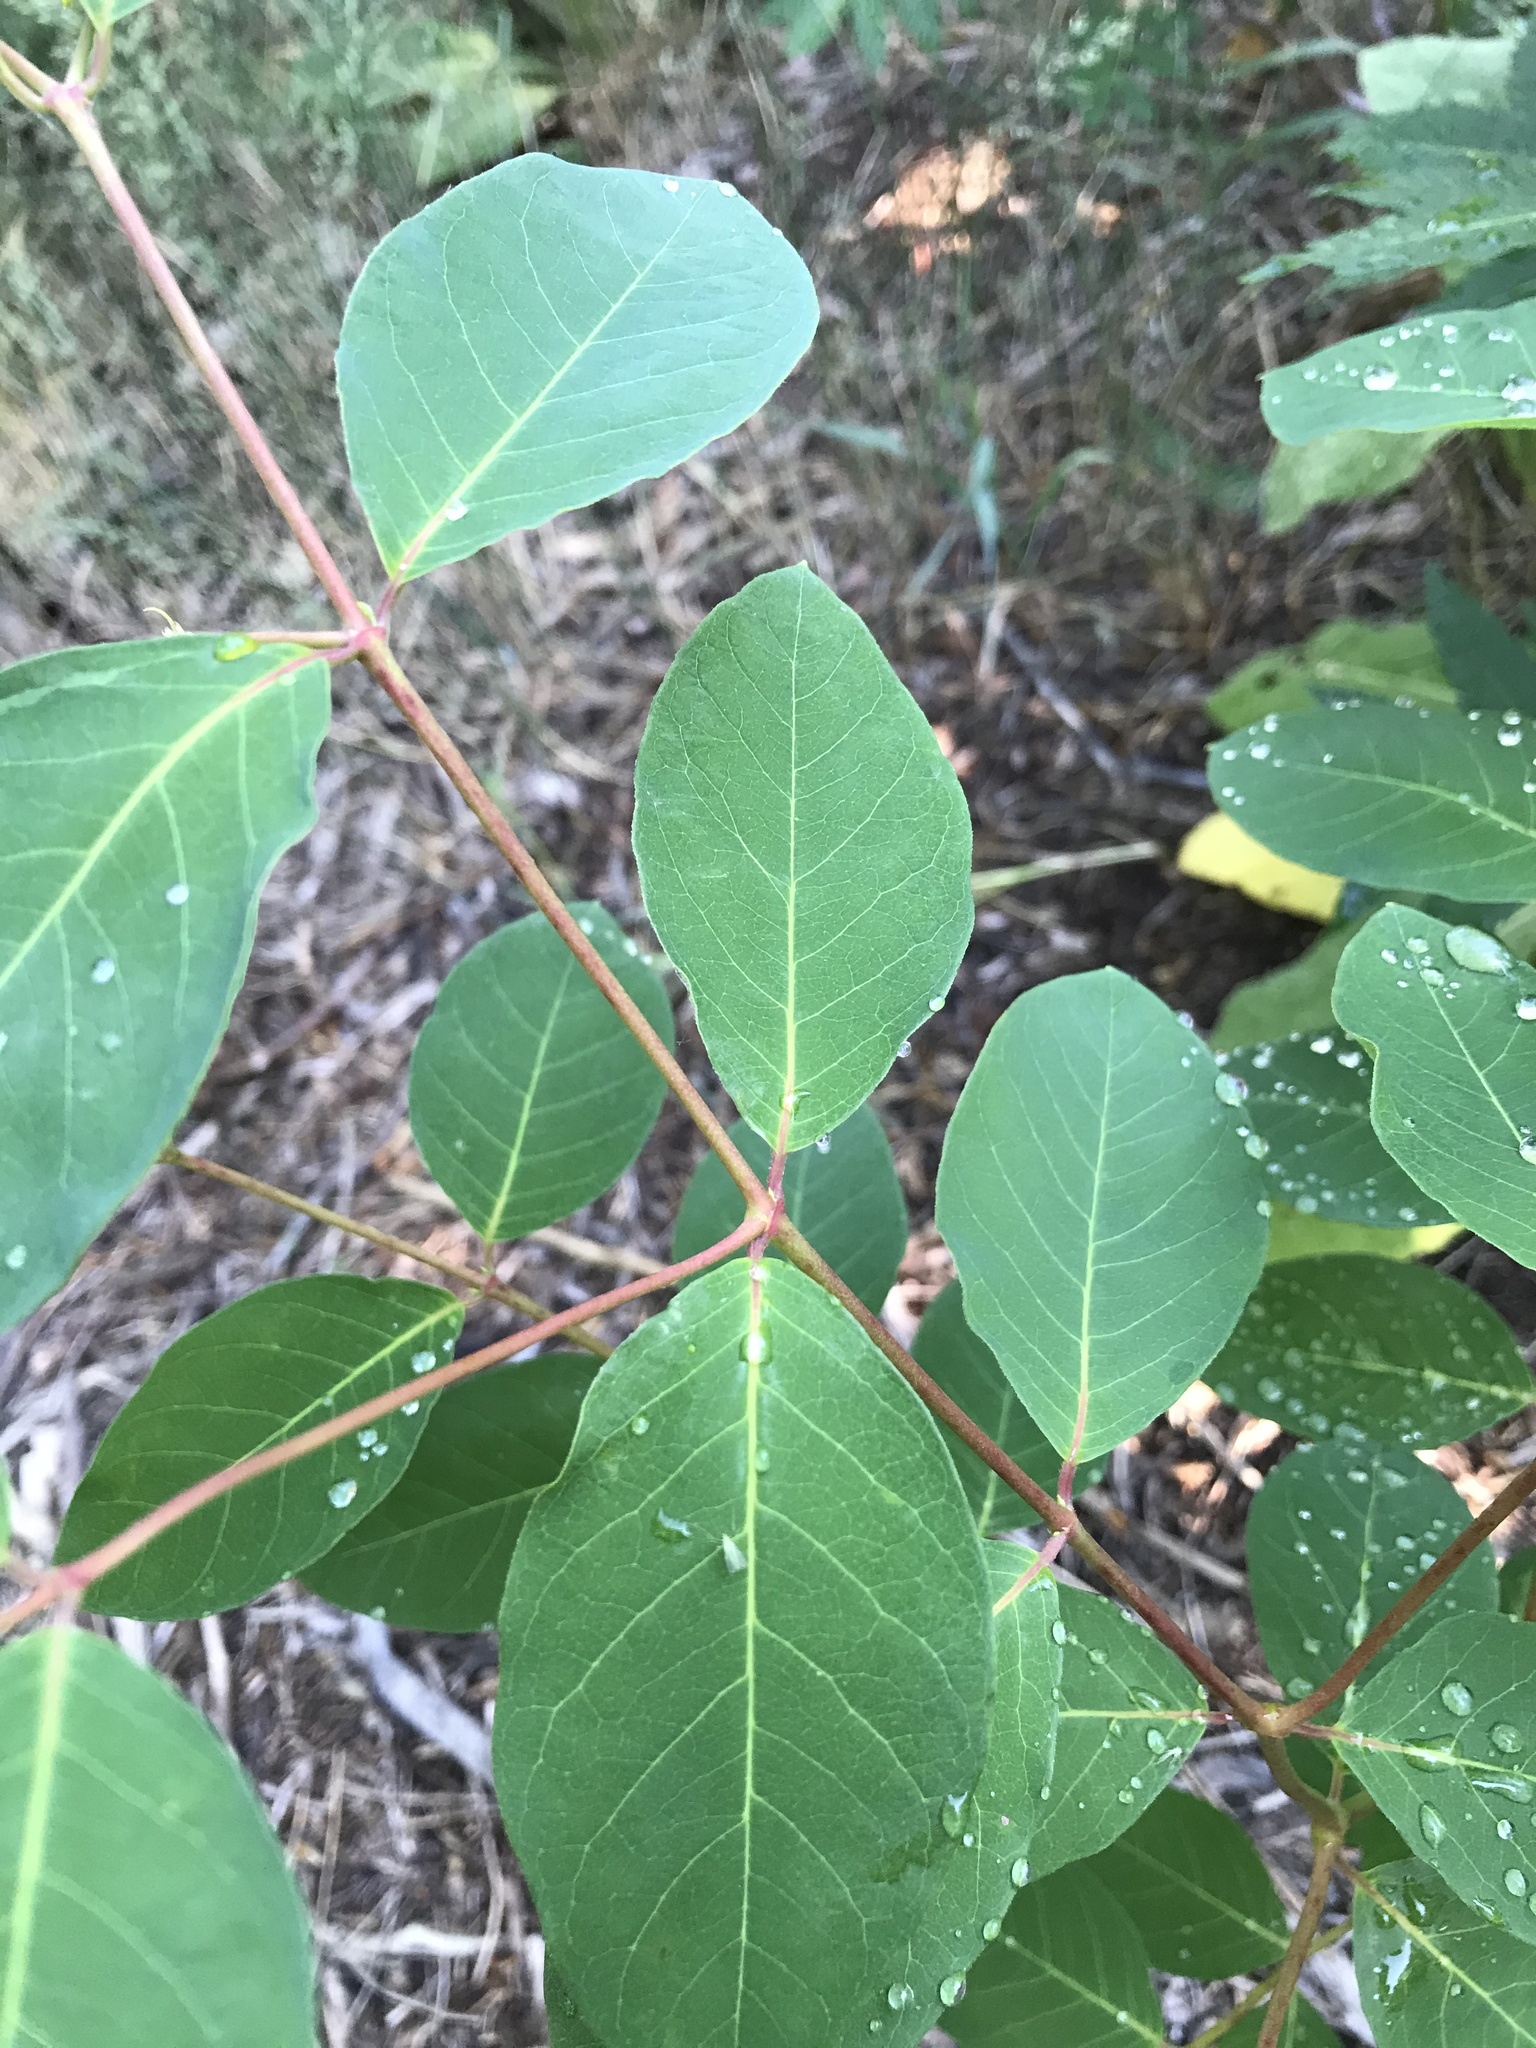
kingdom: Plantae
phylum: Tracheophyta
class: Magnoliopsida
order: Gentianales
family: Apocynaceae
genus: Apocynum
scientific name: Apocynum androsaemifolium
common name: Spreading dogbane
